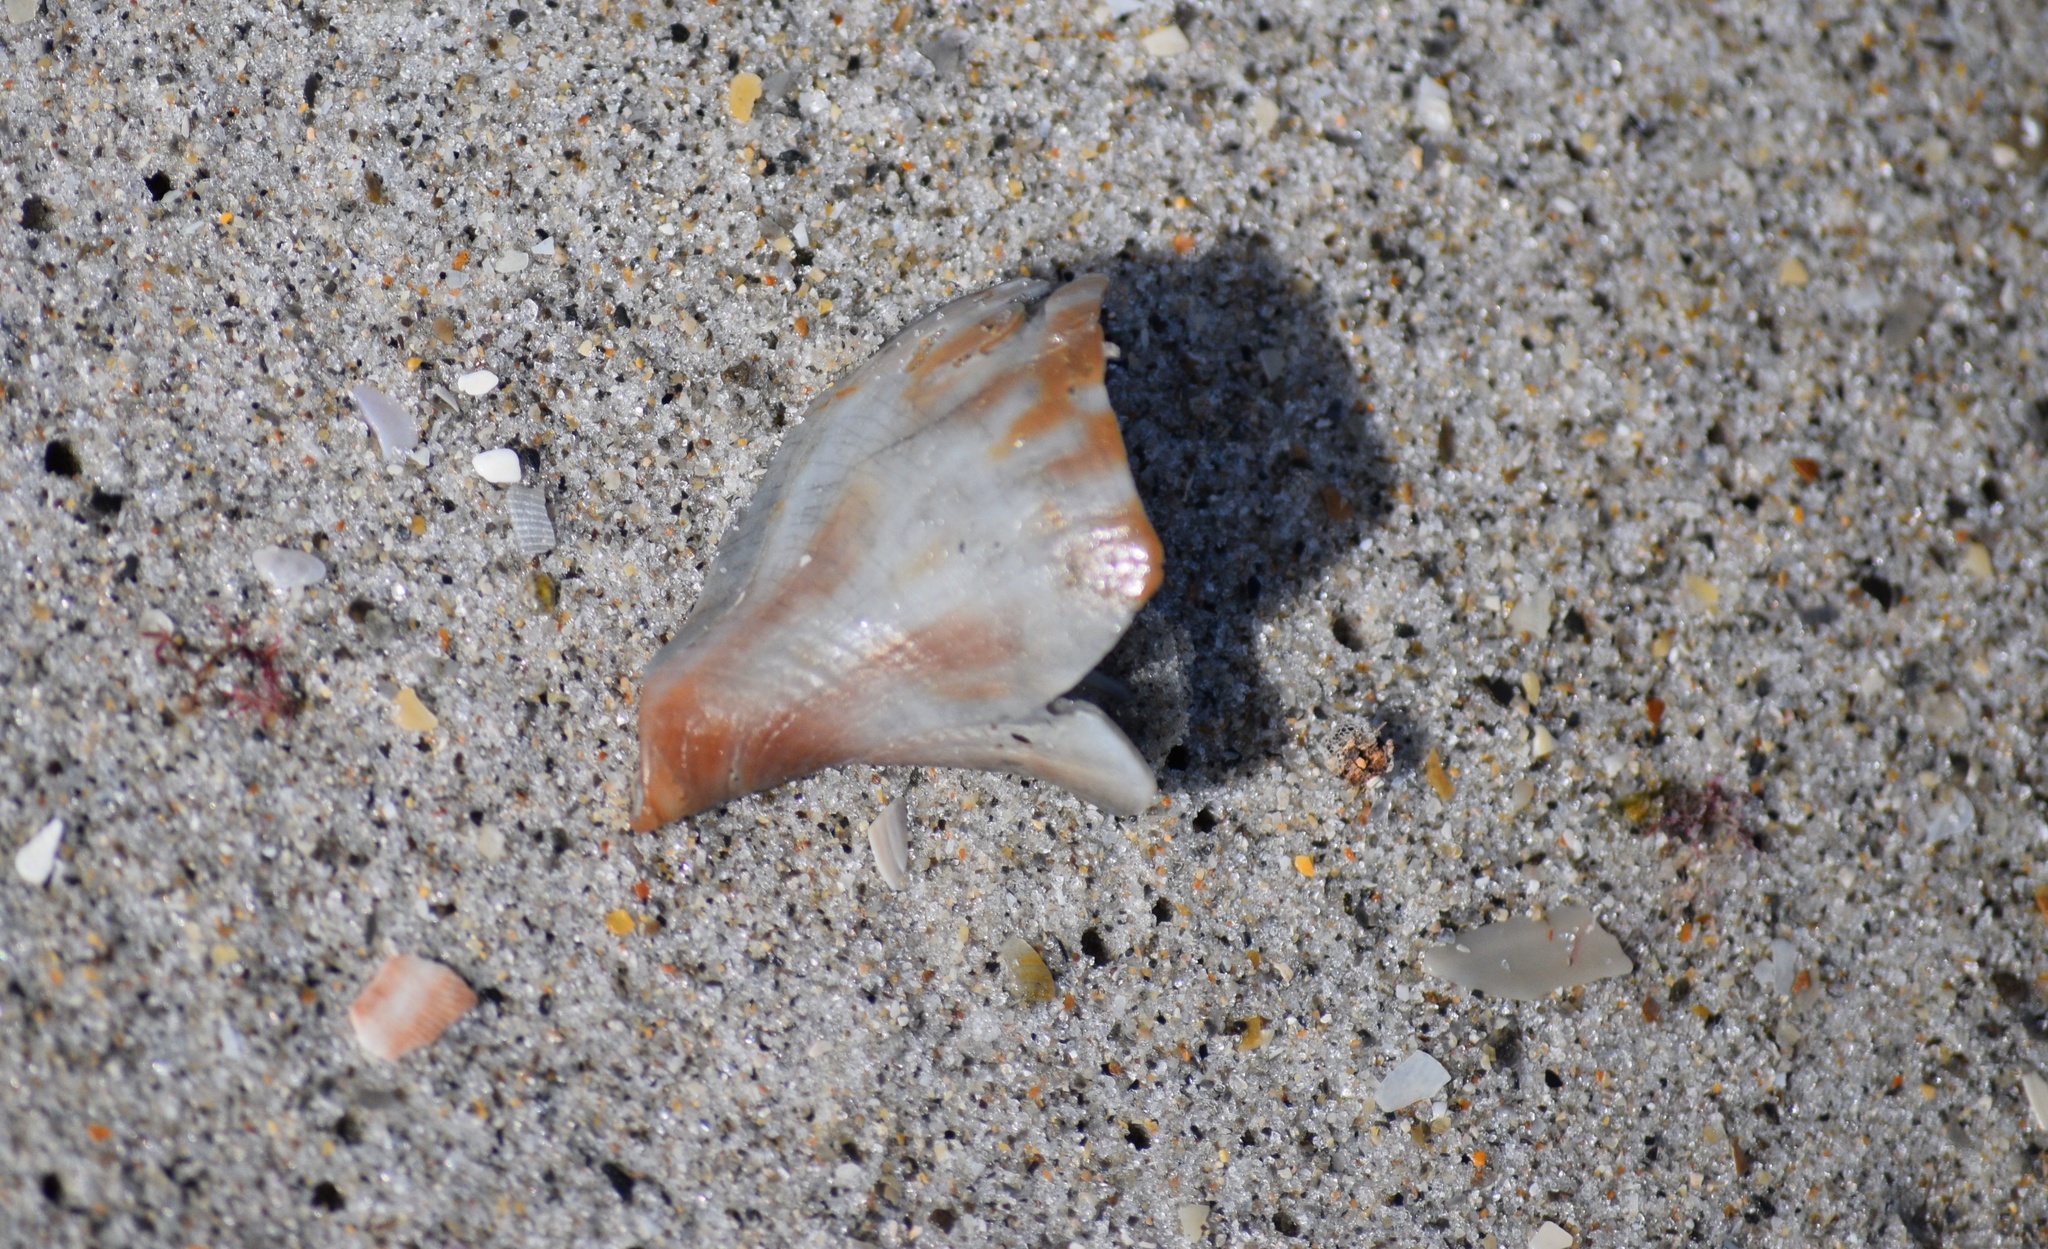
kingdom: Animalia
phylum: Mollusca
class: Gastropoda
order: Neogastropoda
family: Fasciolariidae
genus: Fasciolaria
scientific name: Fasciolaria tulipa
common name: True tulip
